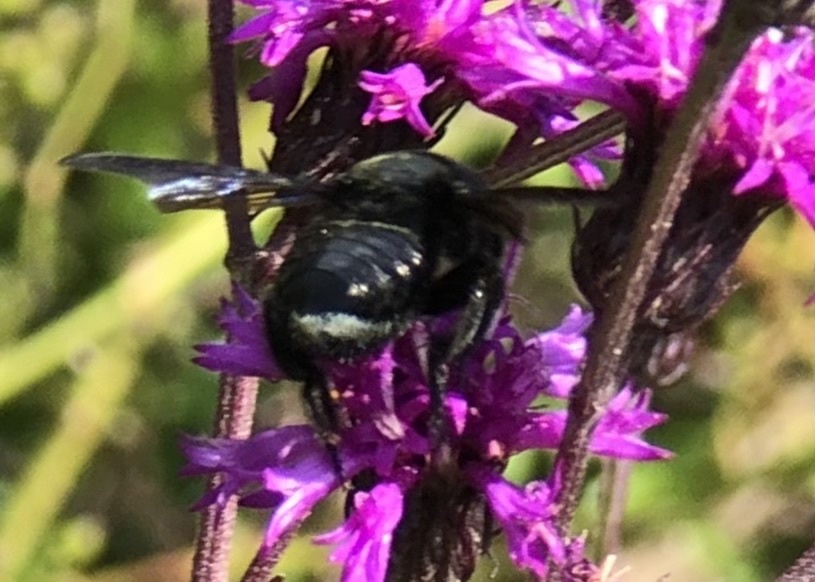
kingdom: Animalia
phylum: Arthropoda
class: Insecta
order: Hymenoptera
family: Megachilidae
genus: Megachile
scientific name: Megachile xylocopoides
